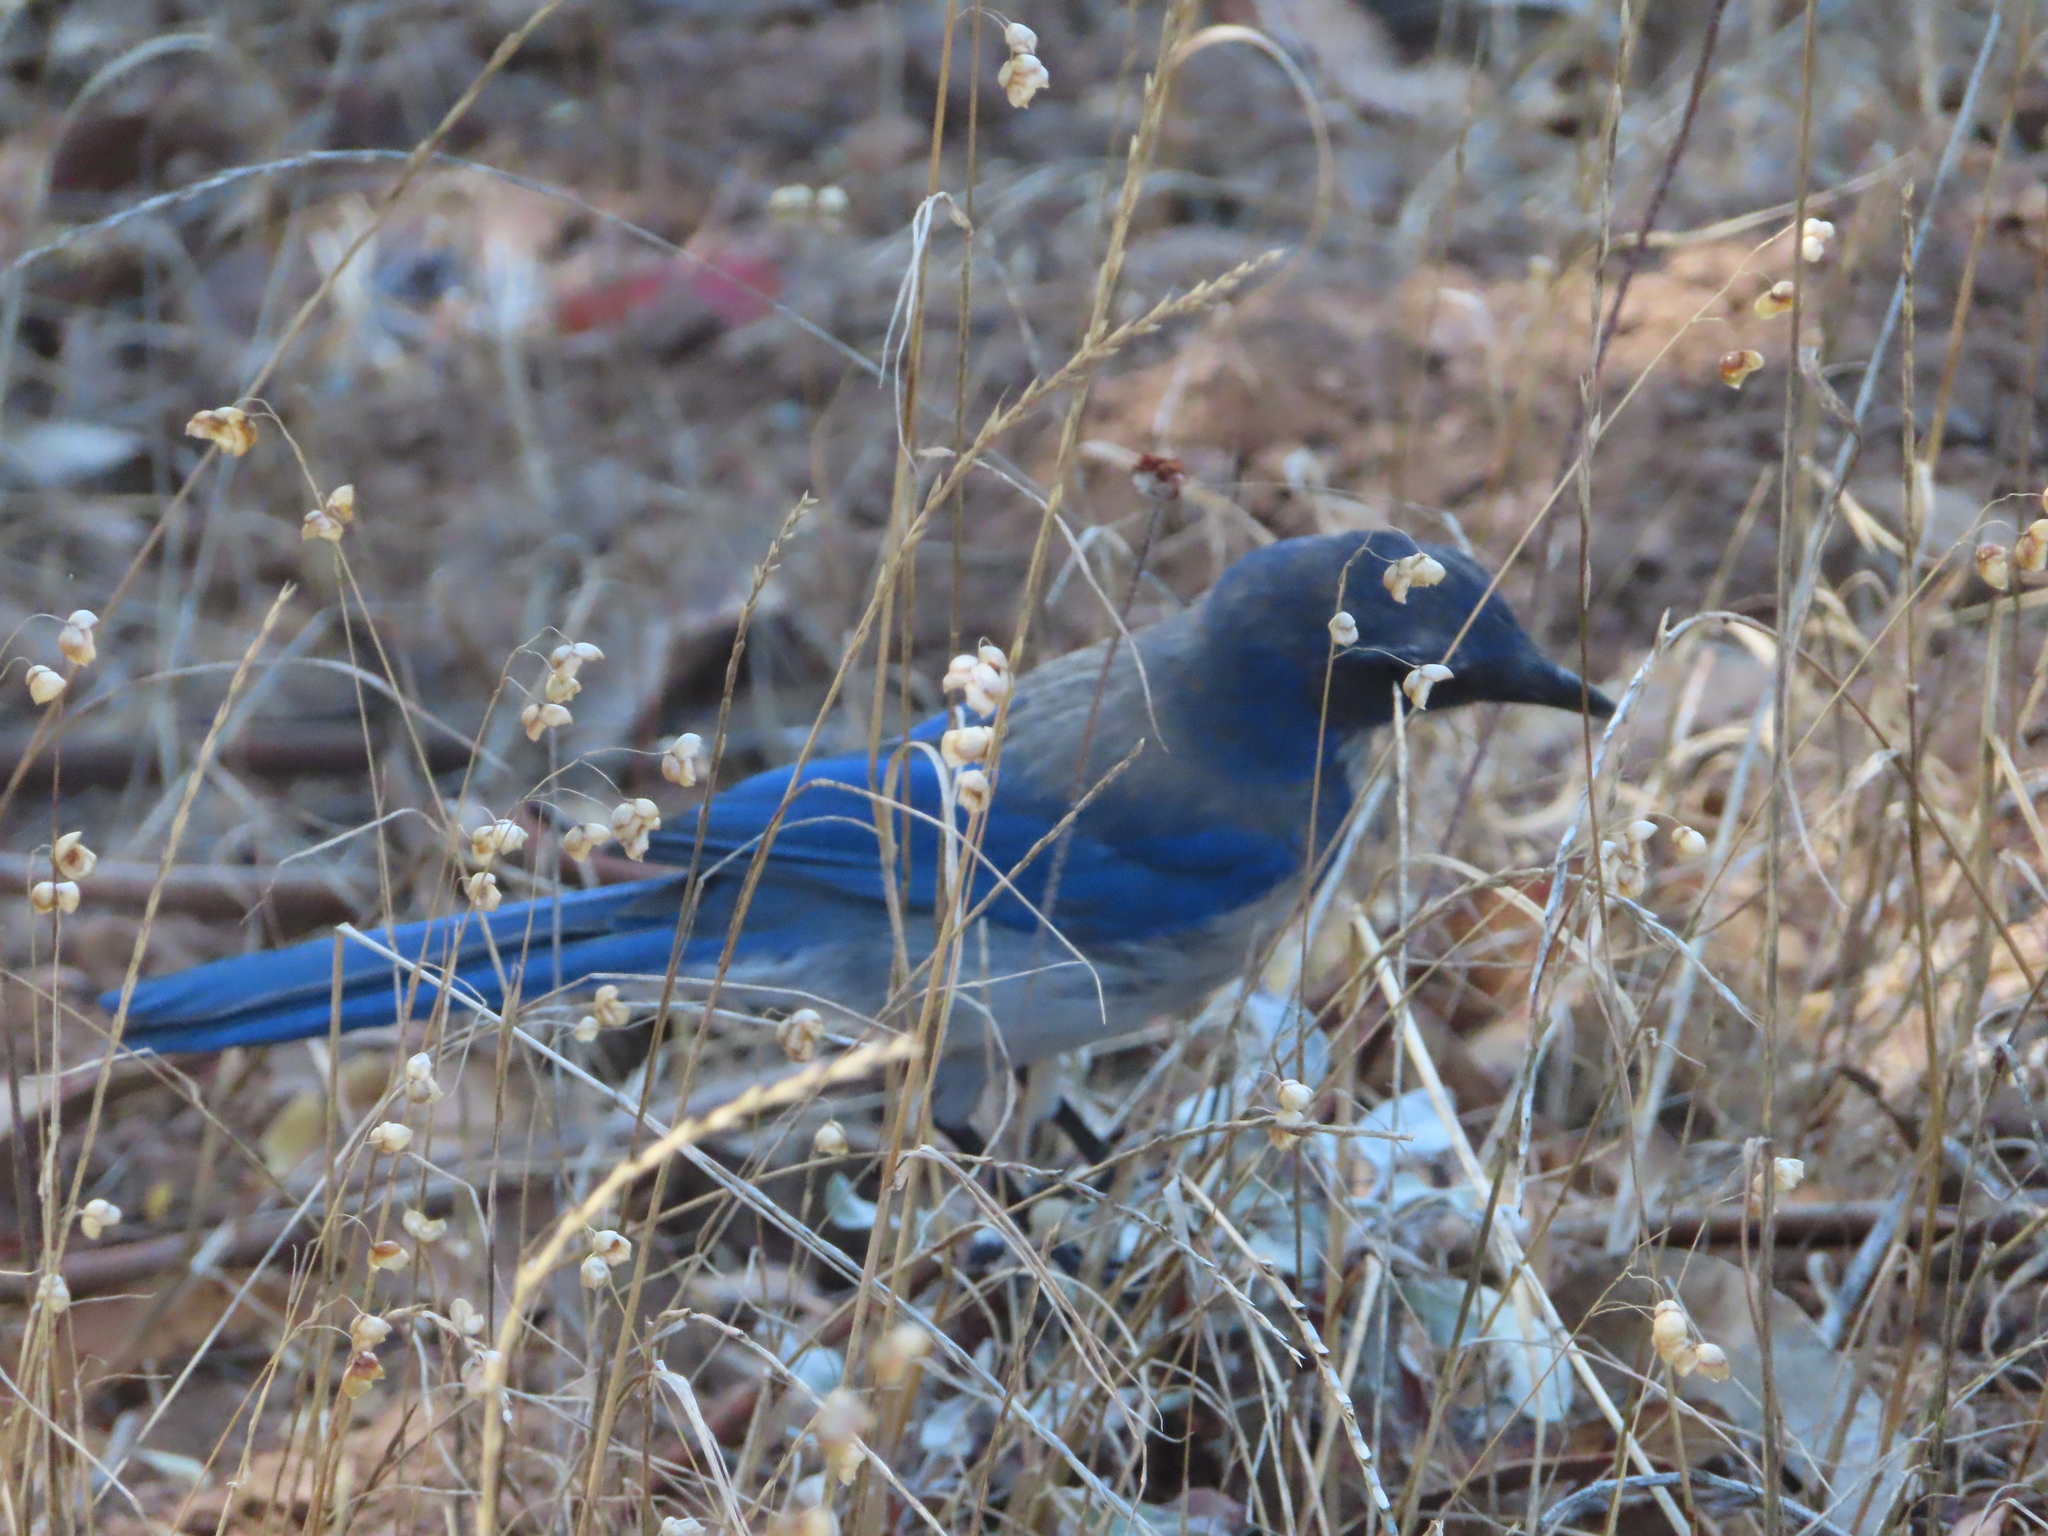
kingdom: Animalia
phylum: Chordata
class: Aves
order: Passeriformes
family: Corvidae
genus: Aphelocoma
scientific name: Aphelocoma californica
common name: California scrub-jay
